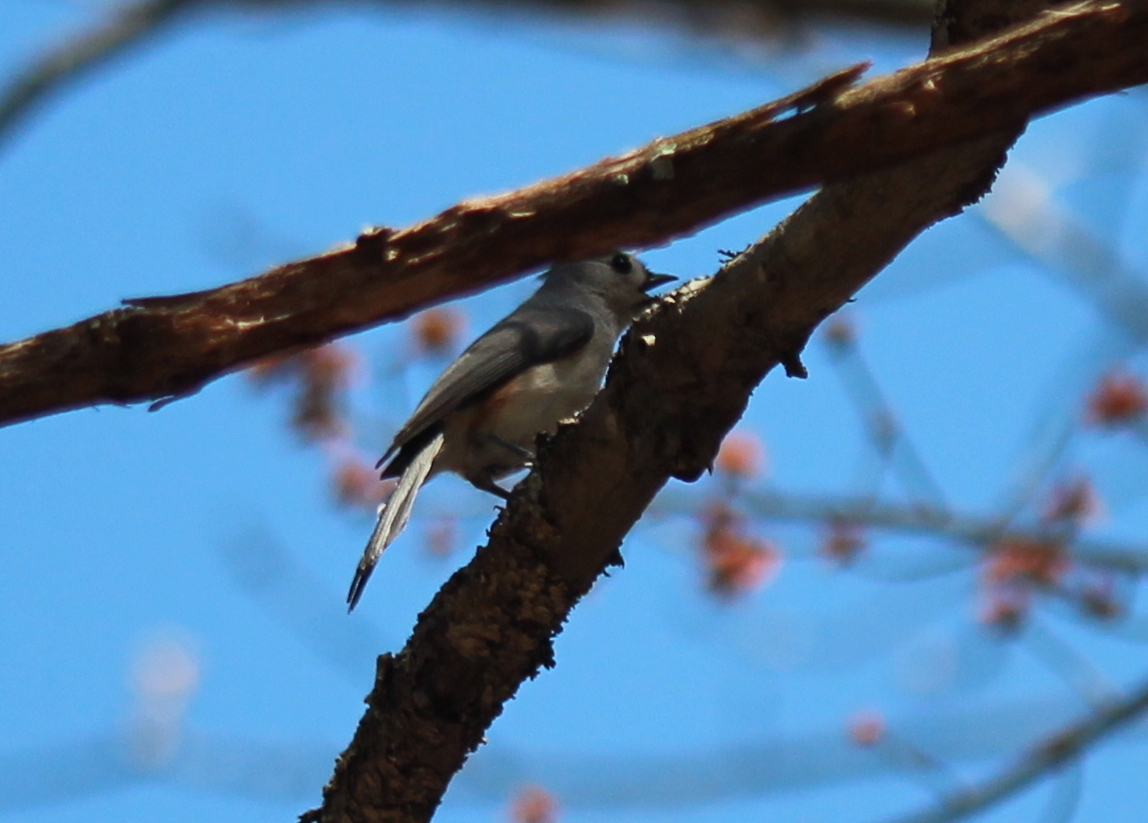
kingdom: Animalia
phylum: Chordata
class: Aves
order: Passeriformes
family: Paridae
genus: Baeolophus
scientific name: Baeolophus bicolor
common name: Tufted titmouse
